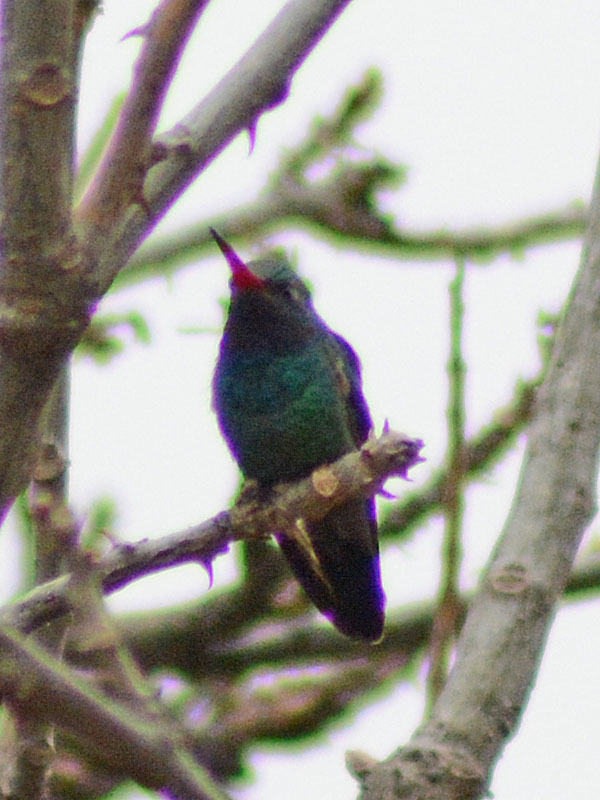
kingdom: Animalia
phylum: Chordata
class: Aves
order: Apodiformes
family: Trochilidae
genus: Cynanthus
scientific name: Cynanthus latirostris
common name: Broad-billed hummingbird
